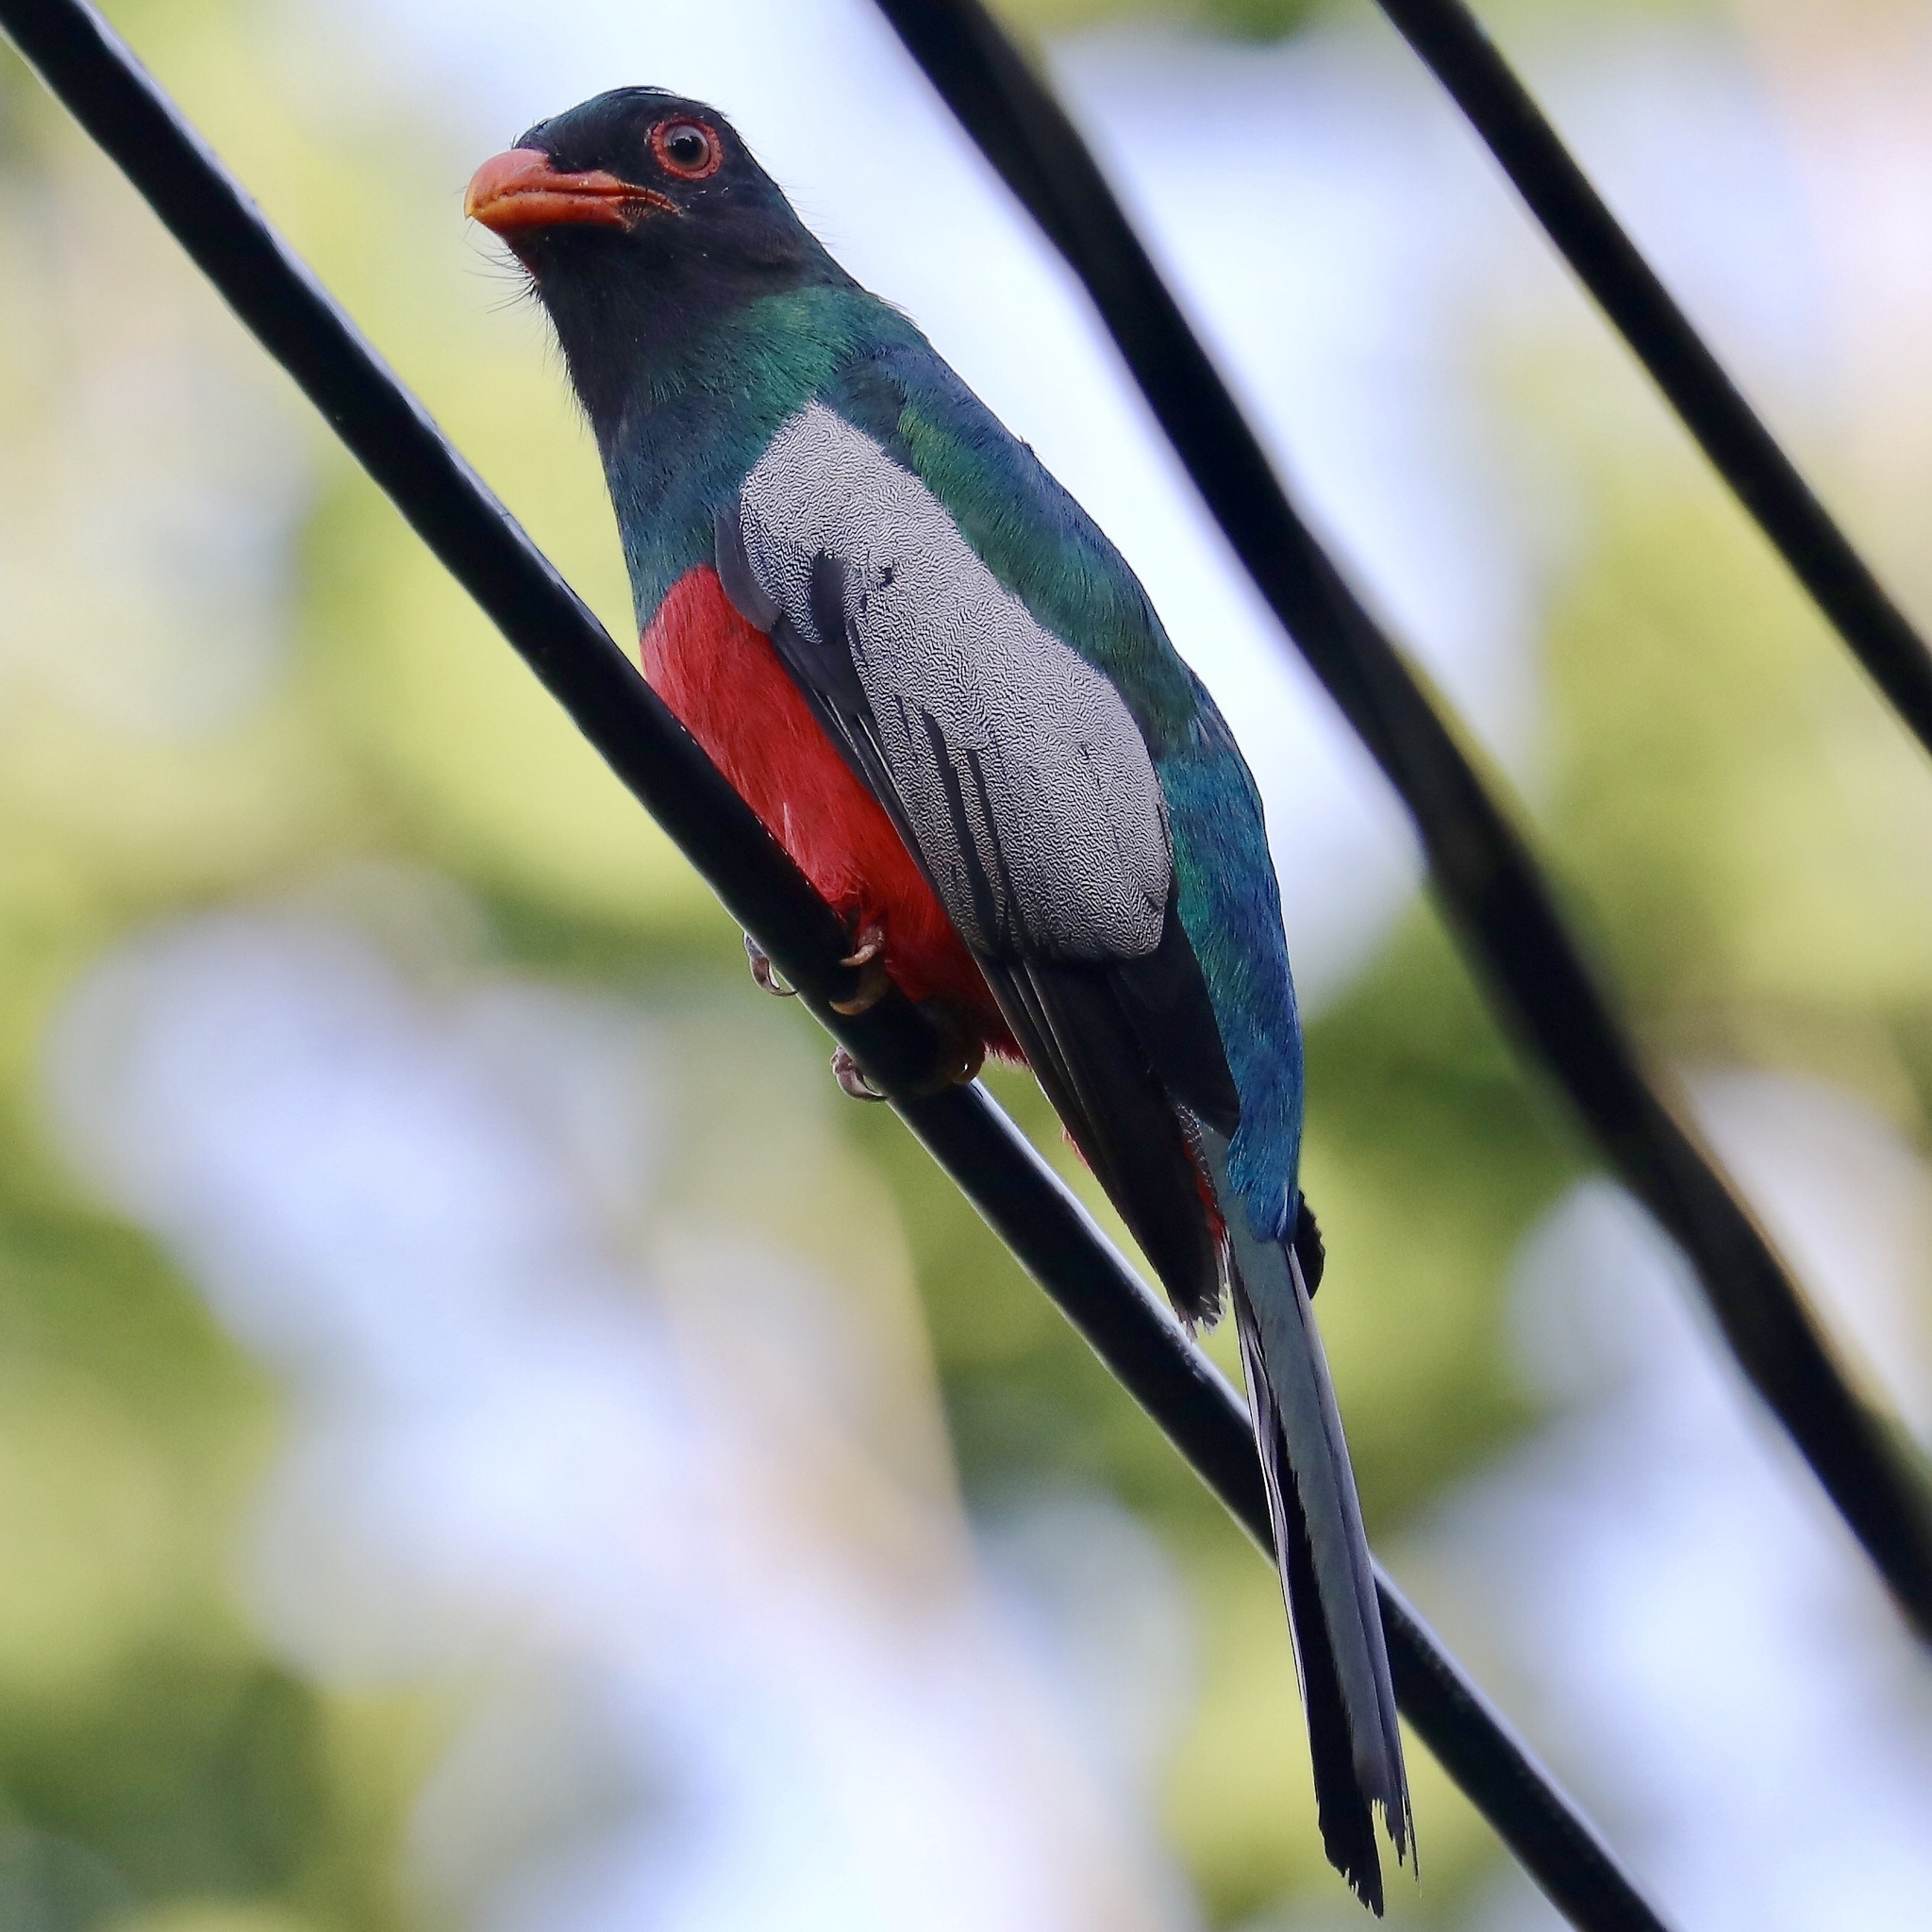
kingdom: Animalia
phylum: Chordata
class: Aves
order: Trogoniformes
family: Trogonidae
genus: Trogon
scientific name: Trogon massena
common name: Slaty-tailed trogon
